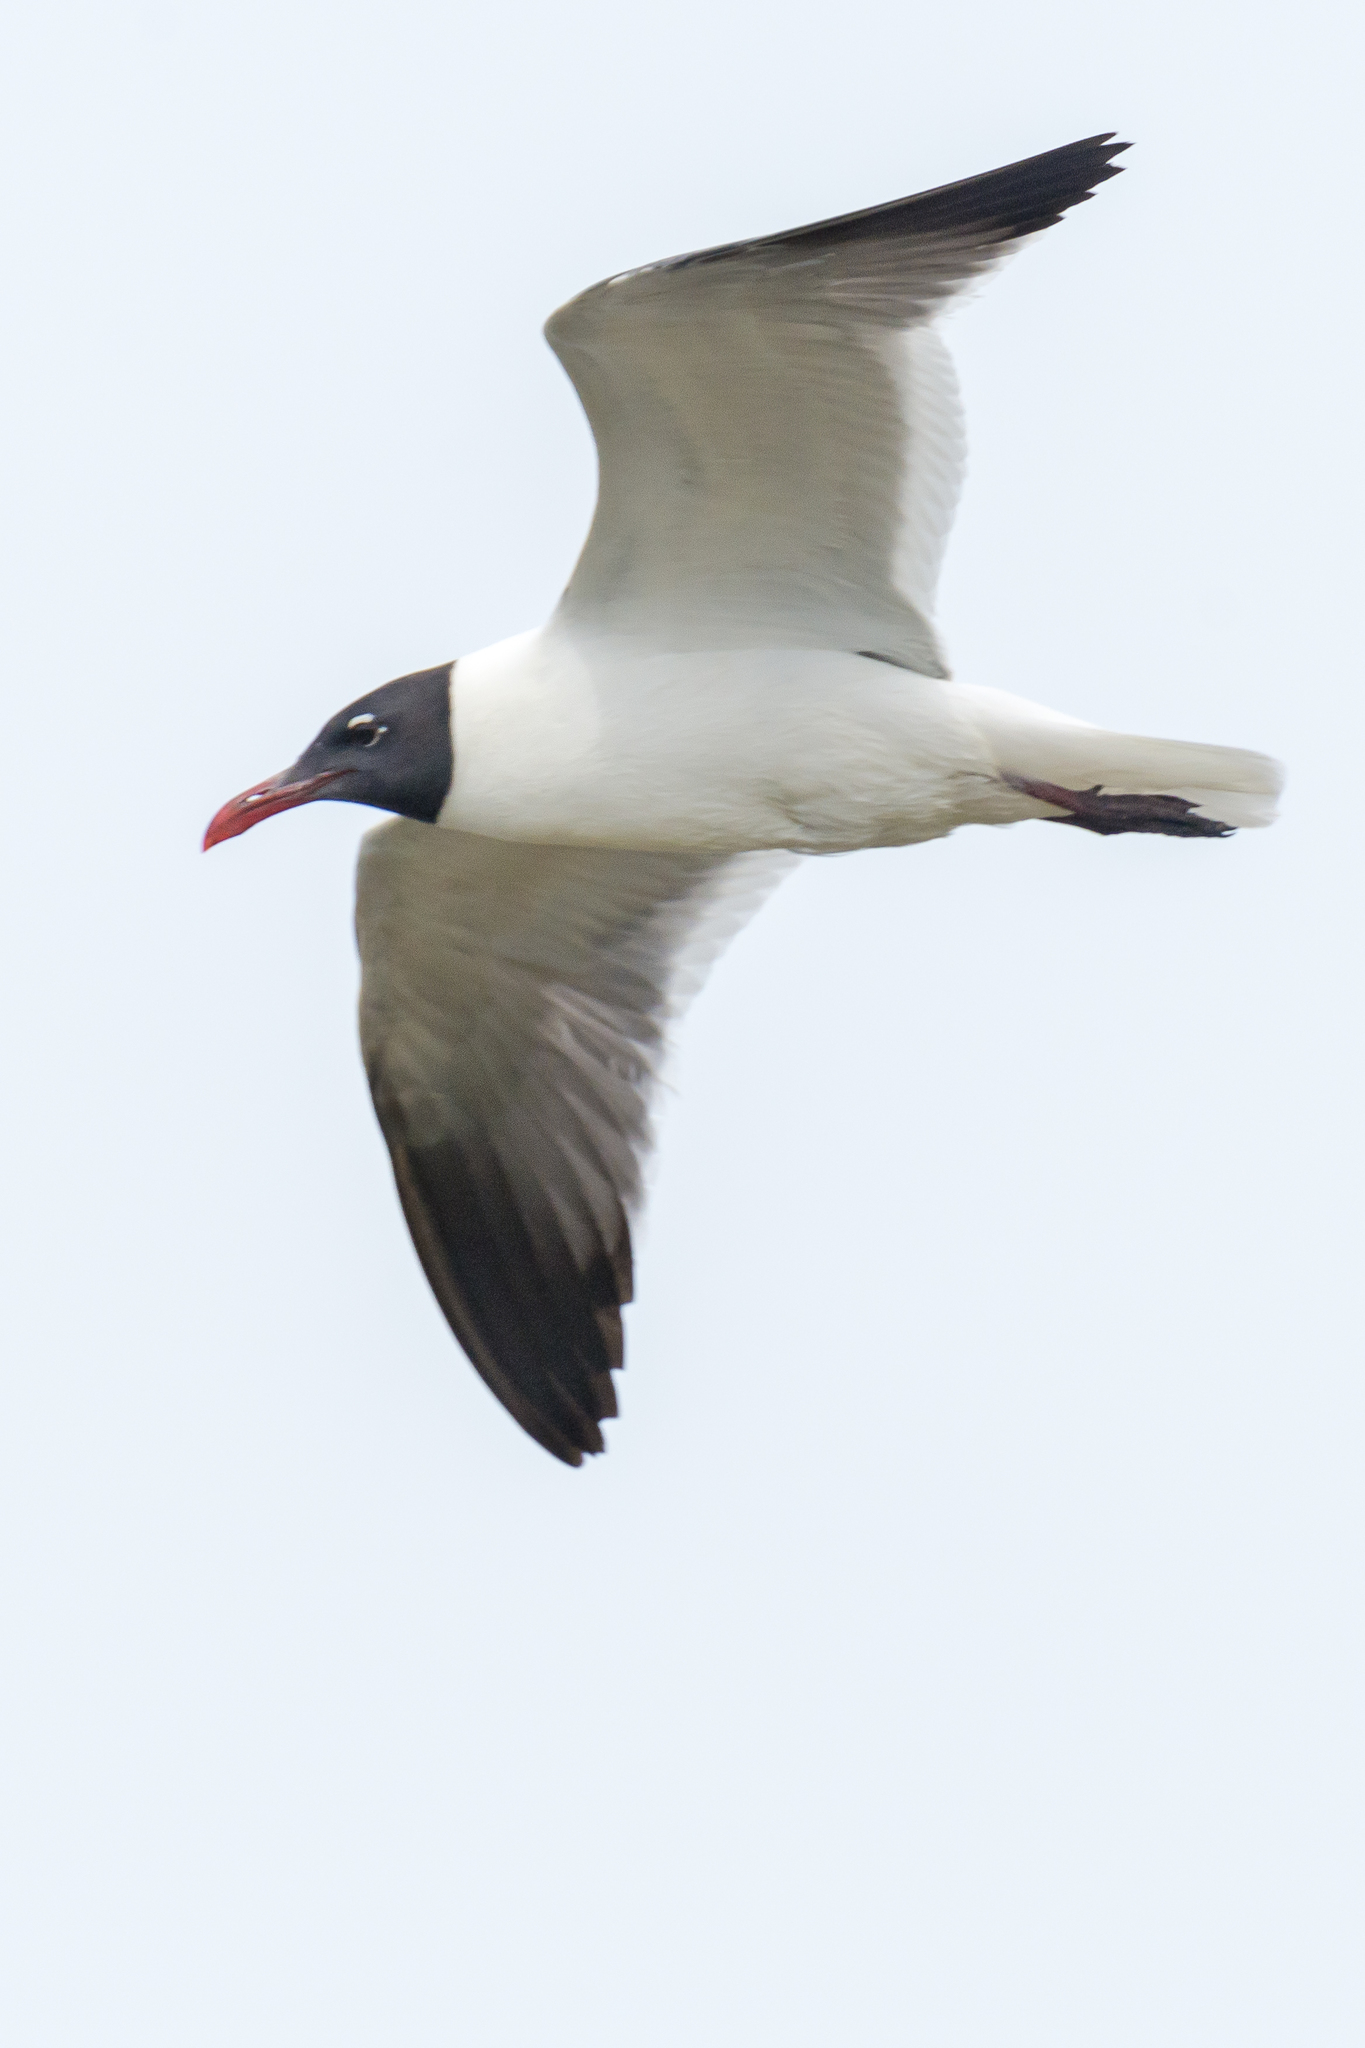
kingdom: Animalia
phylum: Chordata
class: Aves
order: Charadriiformes
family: Laridae
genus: Leucophaeus
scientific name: Leucophaeus atricilla
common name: Laughing gull
